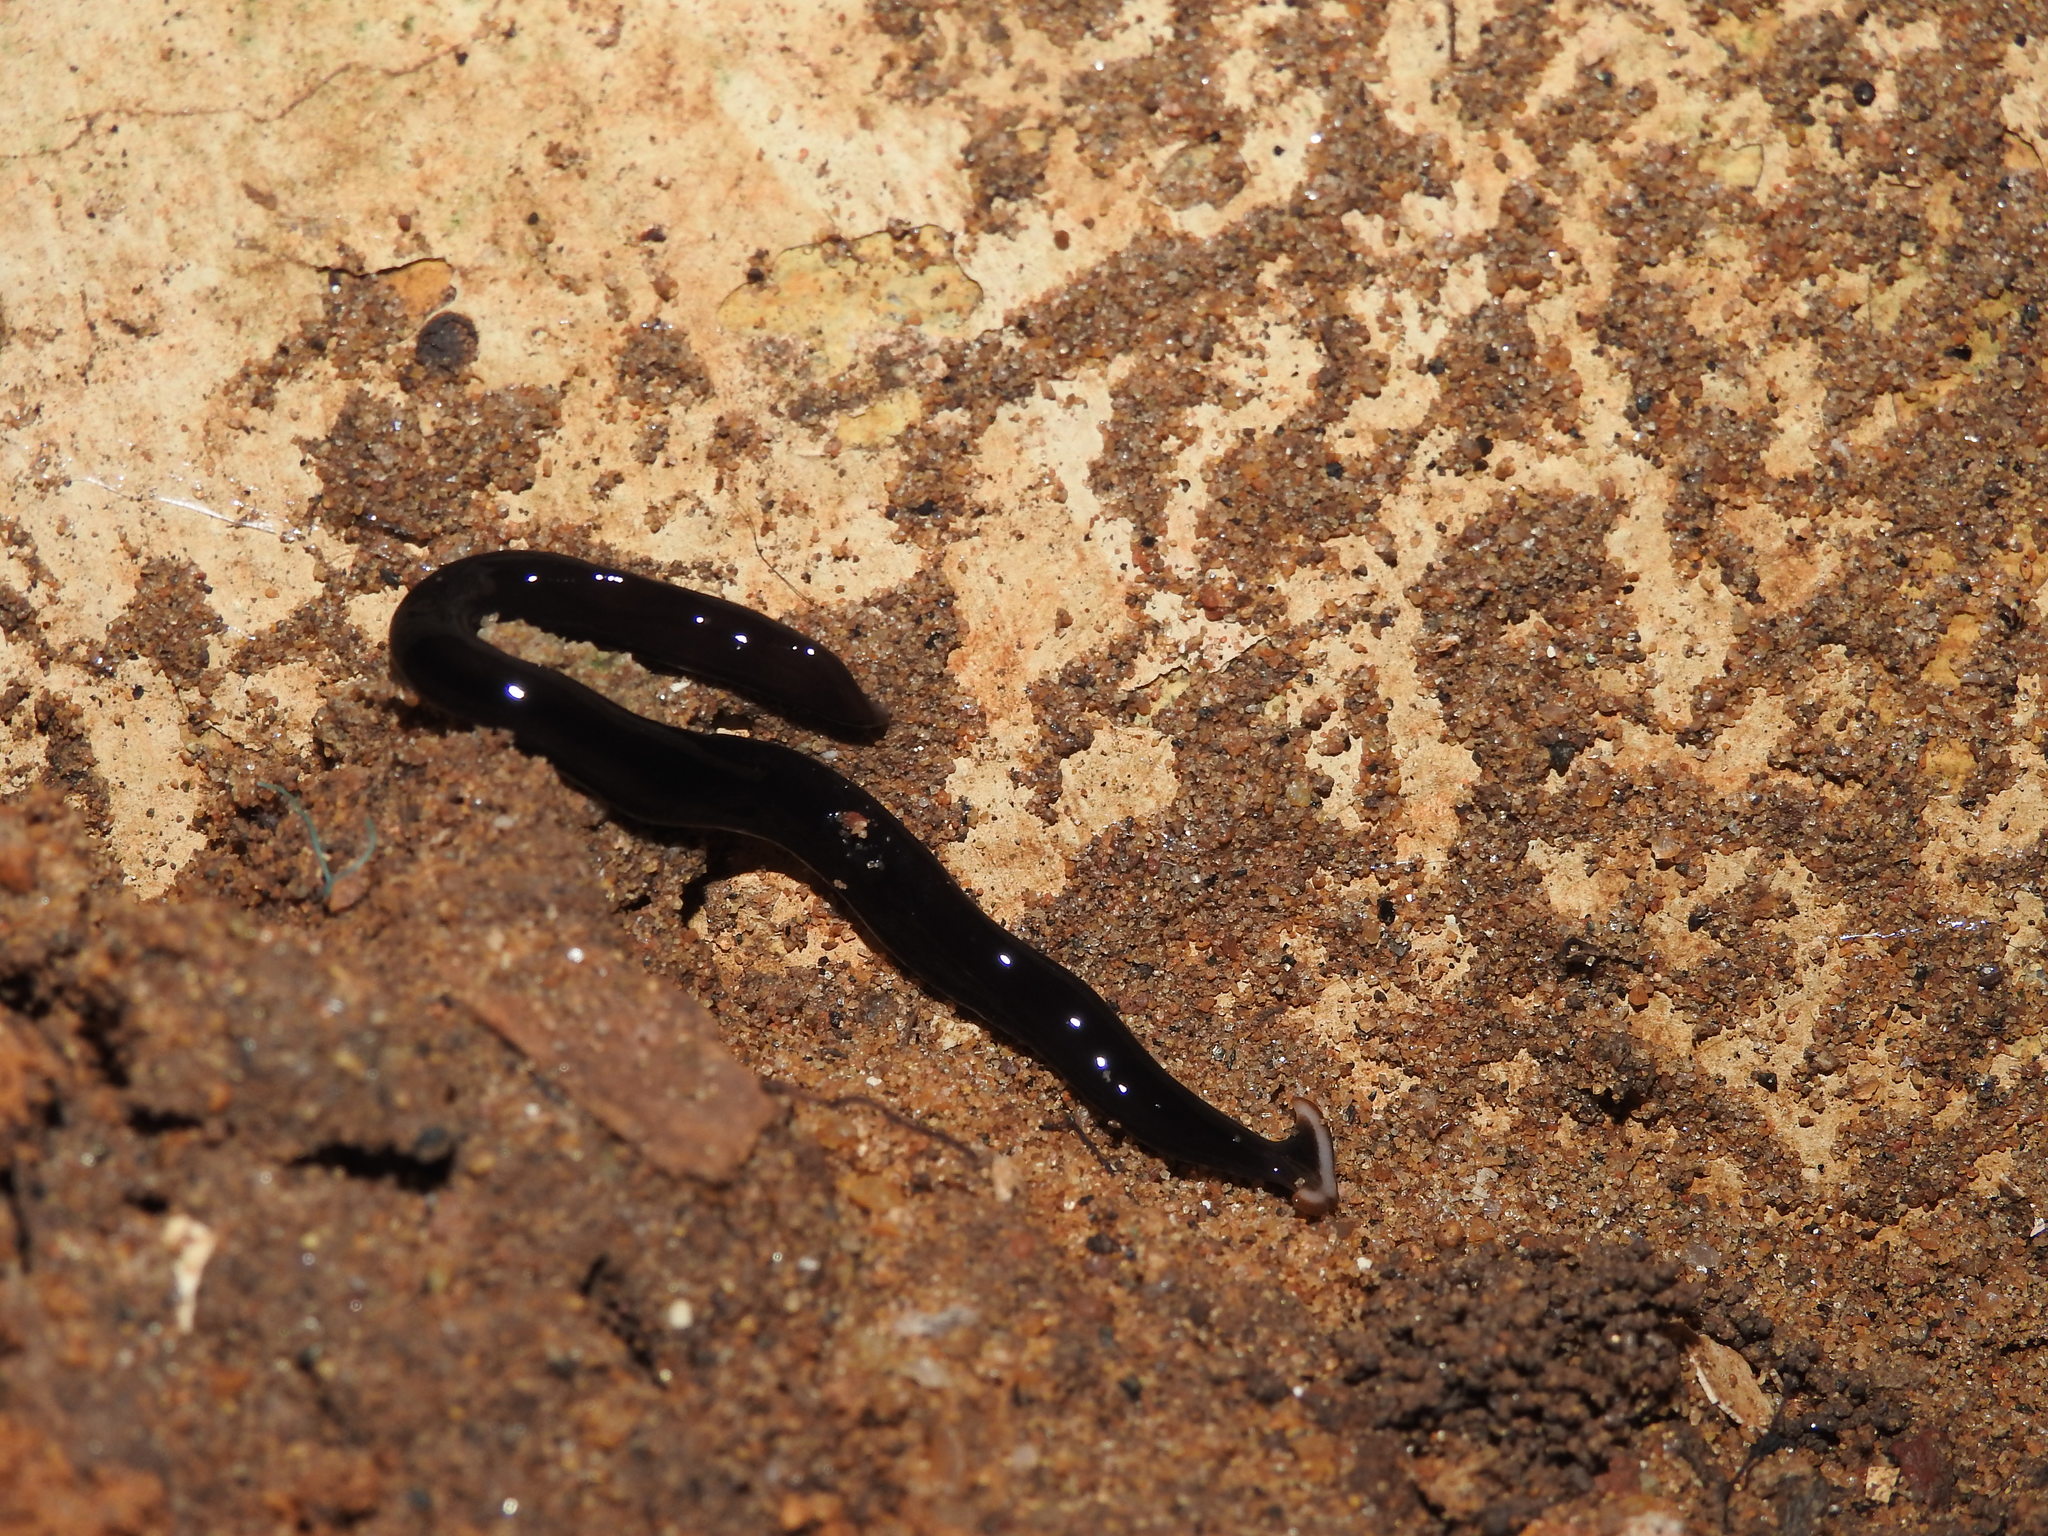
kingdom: Animalia
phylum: Platyhelminthes
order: Tricladida
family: Geoplanidae
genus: Bipalium
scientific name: Bipalium univittatum
